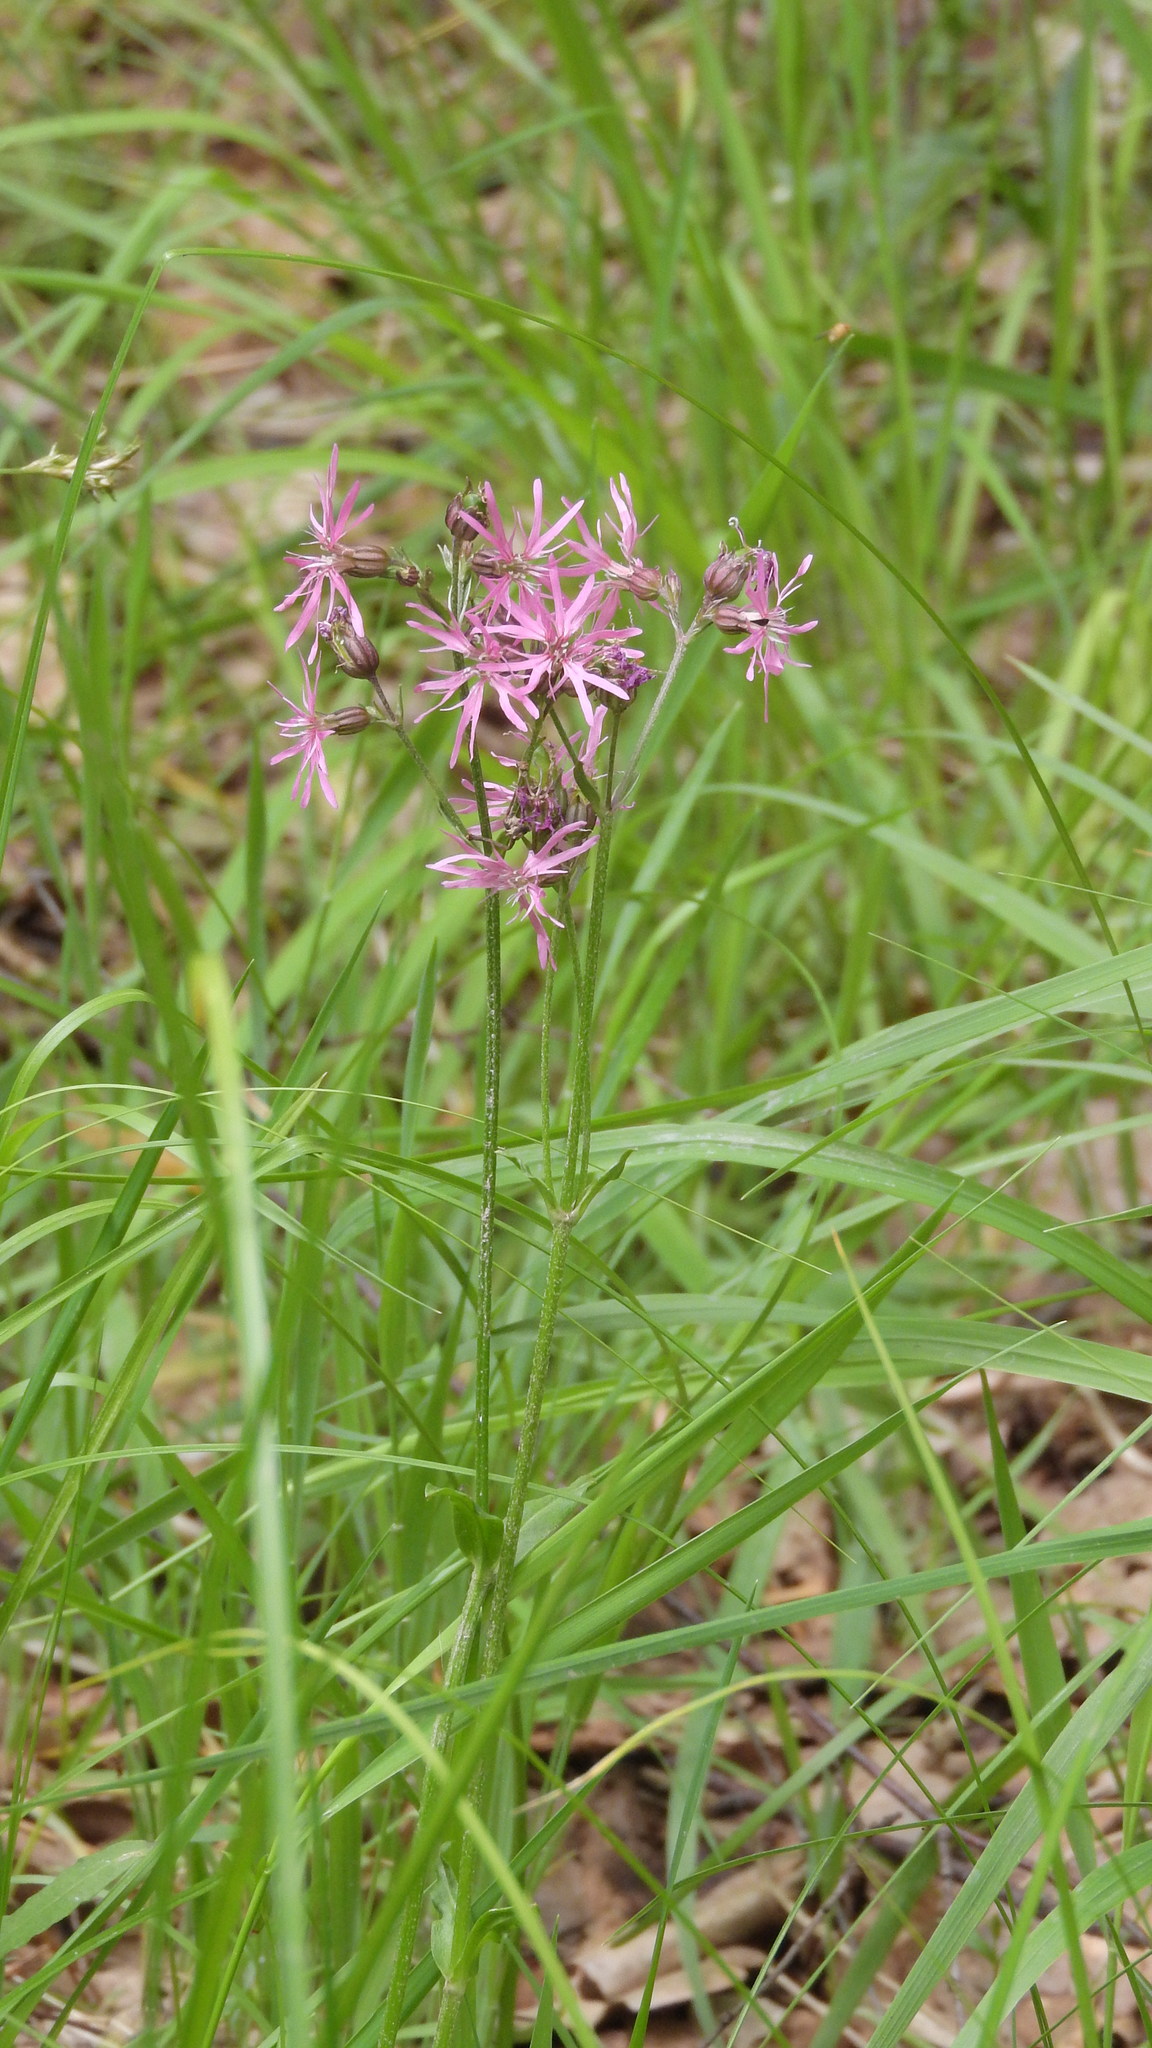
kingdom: Plantae
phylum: Tracheophyta
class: Magnoliopsida
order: Caryophyllales
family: Caryophyllaceae
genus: Silene
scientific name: Silene flos-cuculi
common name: Ragged-robin
